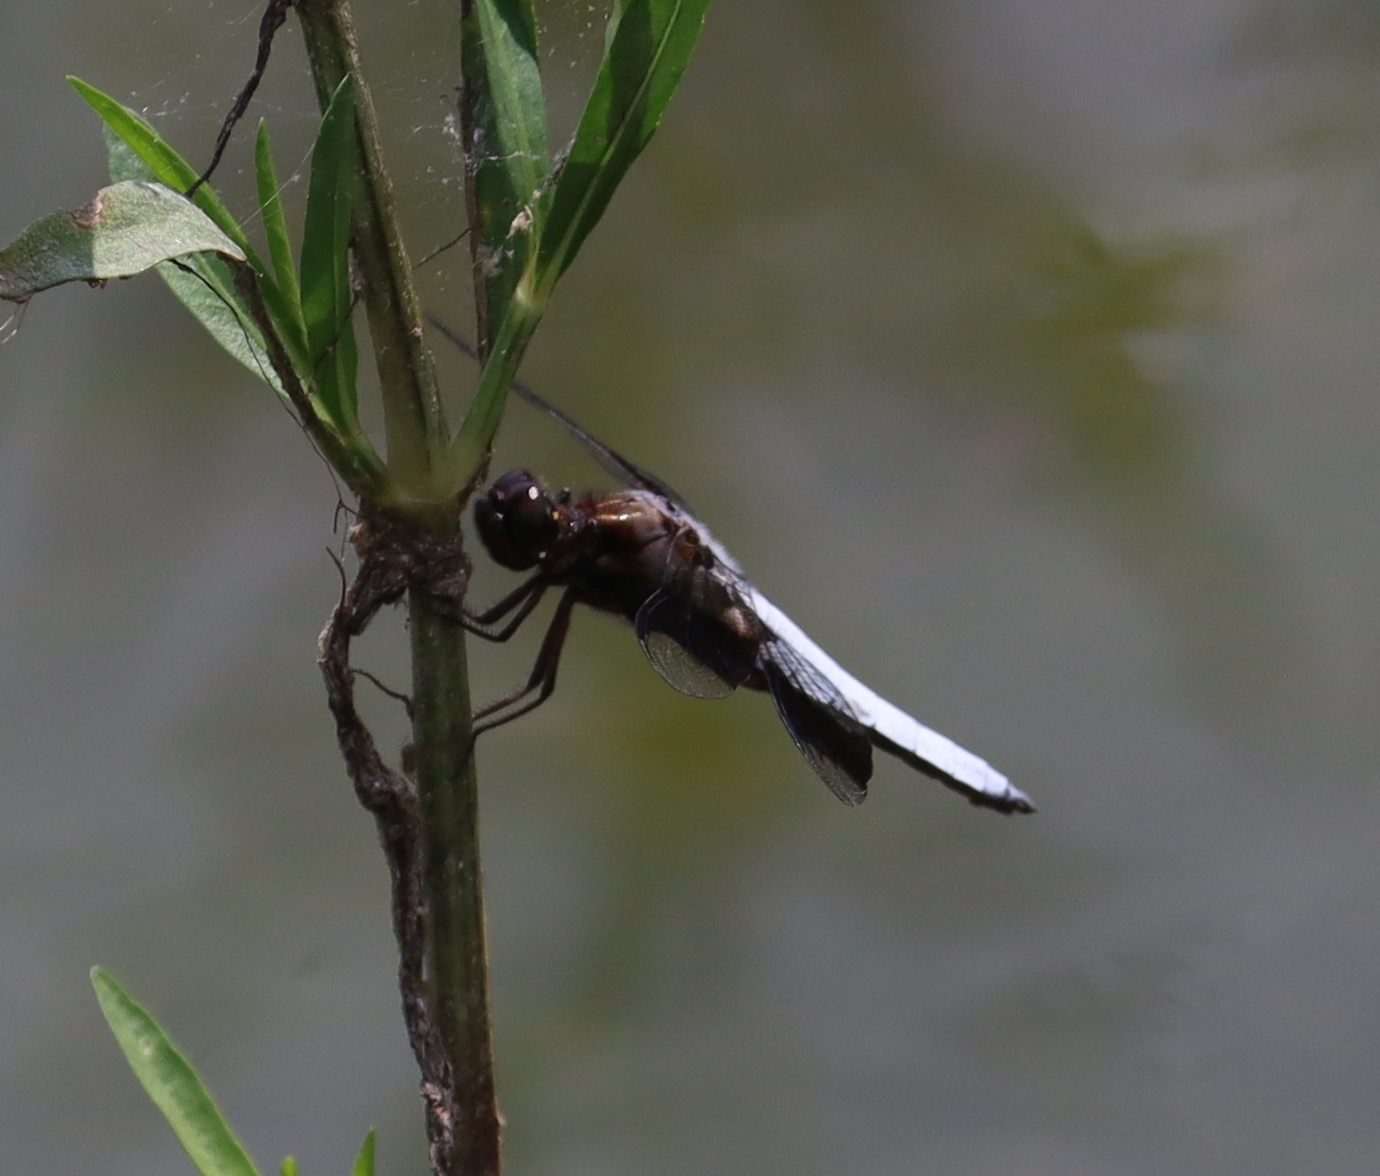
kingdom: Animalia
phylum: Arthropoda
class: Insecta
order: Odonata
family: Libellulidae
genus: Plathemis
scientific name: Plathemis lydia
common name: Common whitetail
